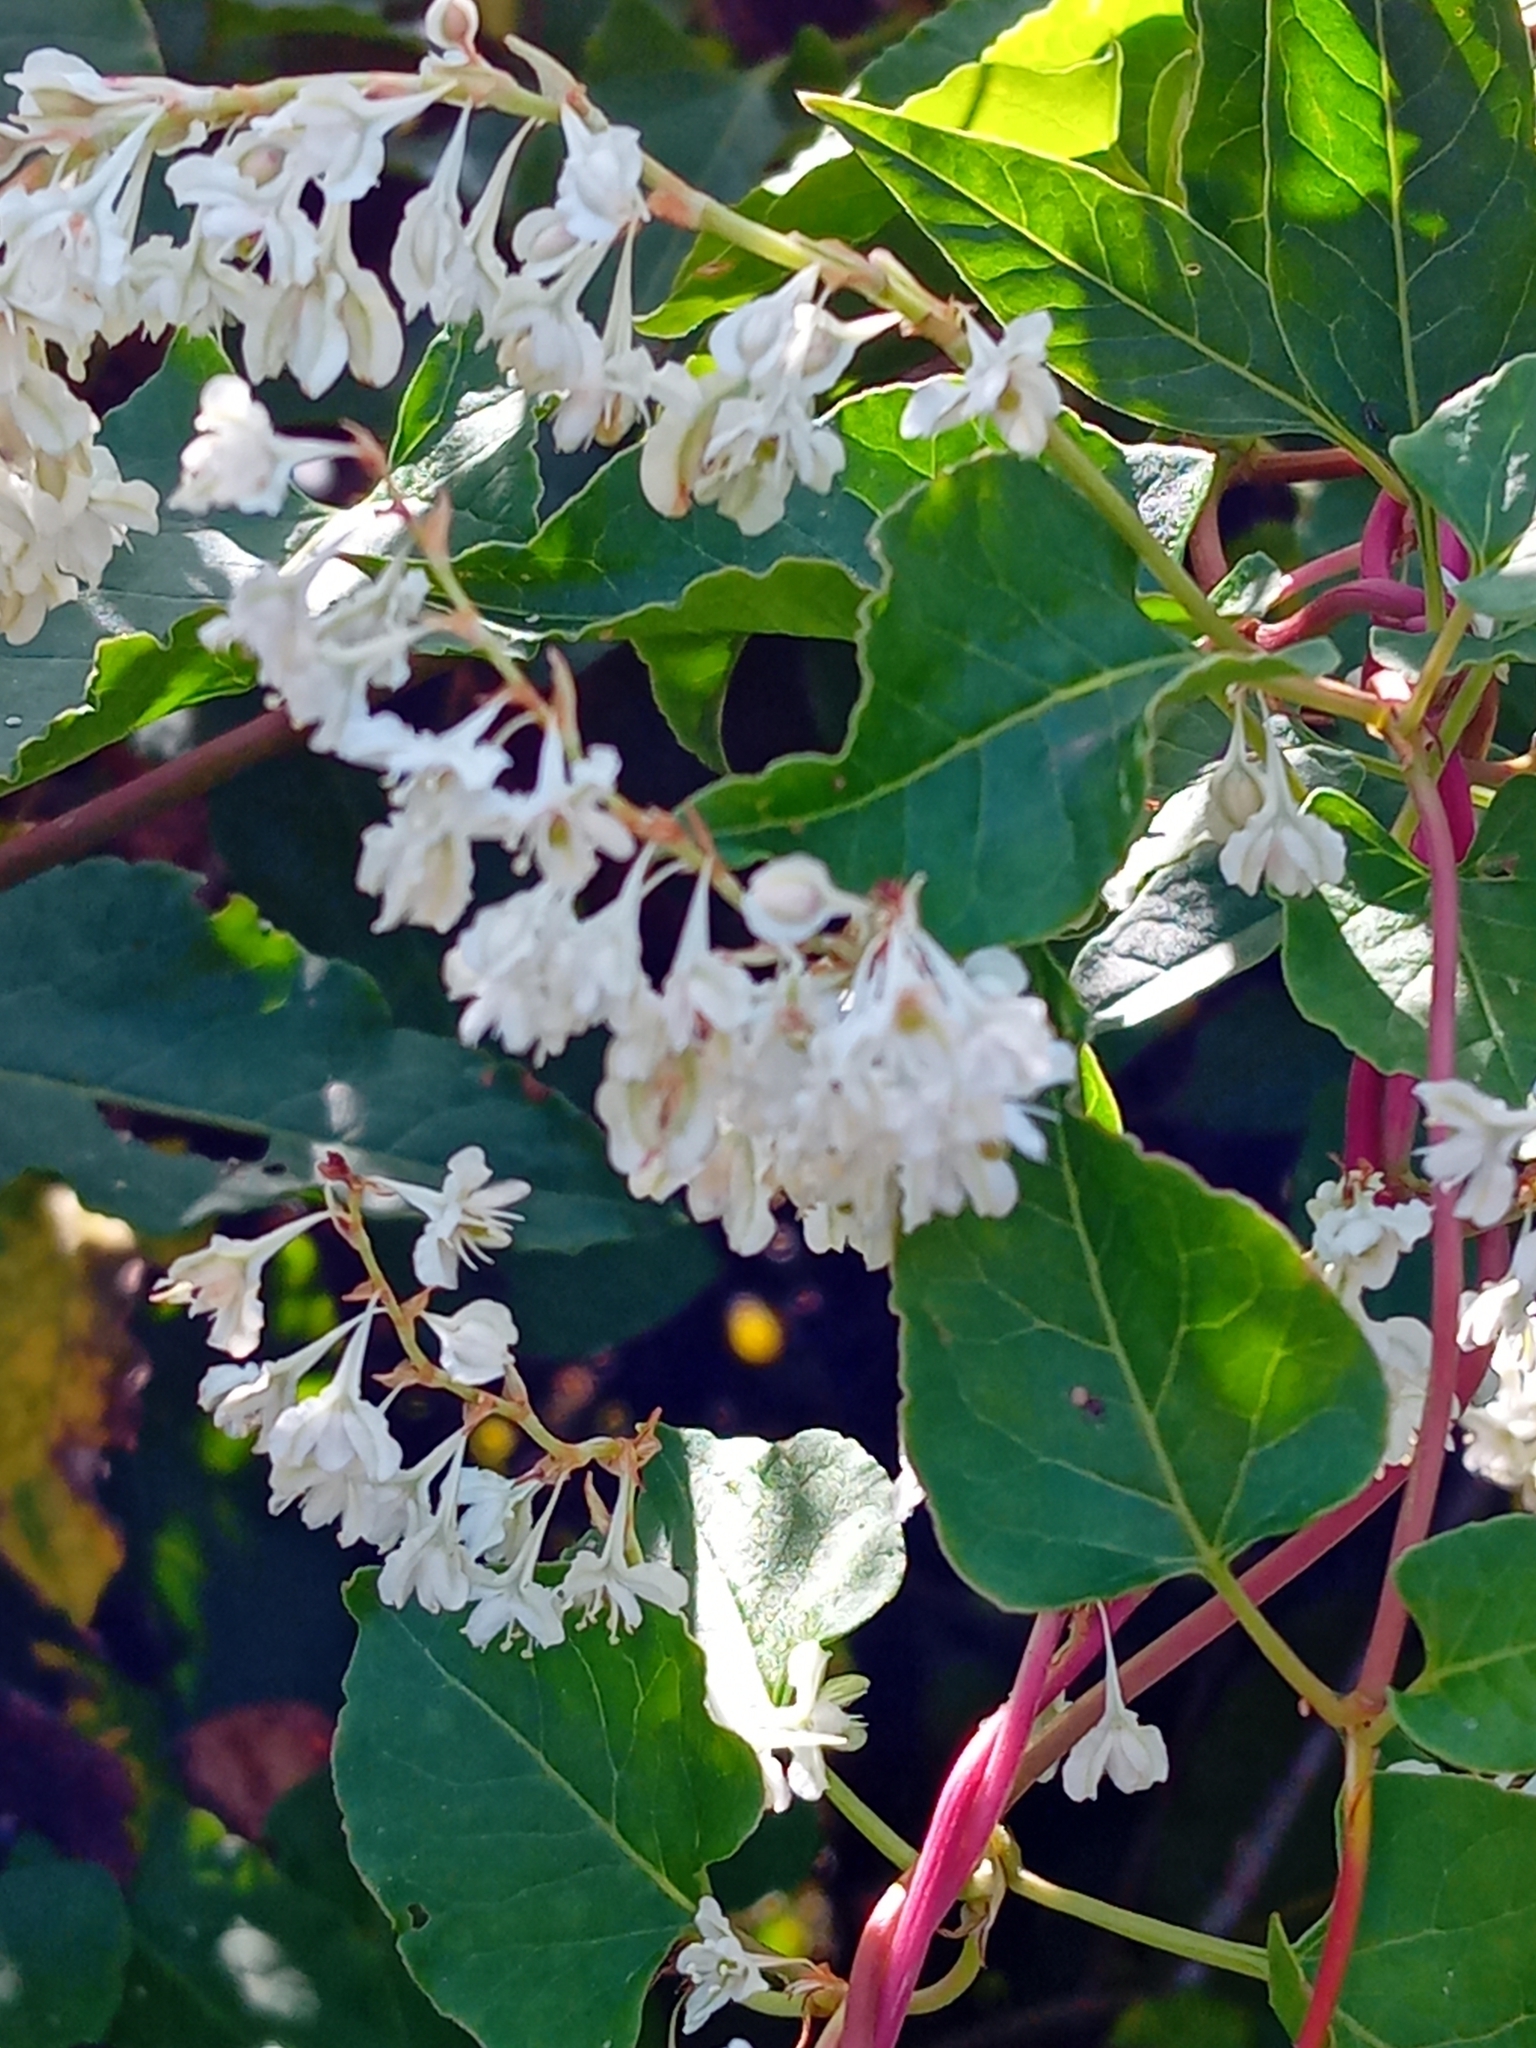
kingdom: Plantae
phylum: Tracheophyta
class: Magnoliopsida
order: Caryophyllales
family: Polygonaceae
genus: Fallopia
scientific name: Fallopia baldschuanica
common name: Russian-vine
